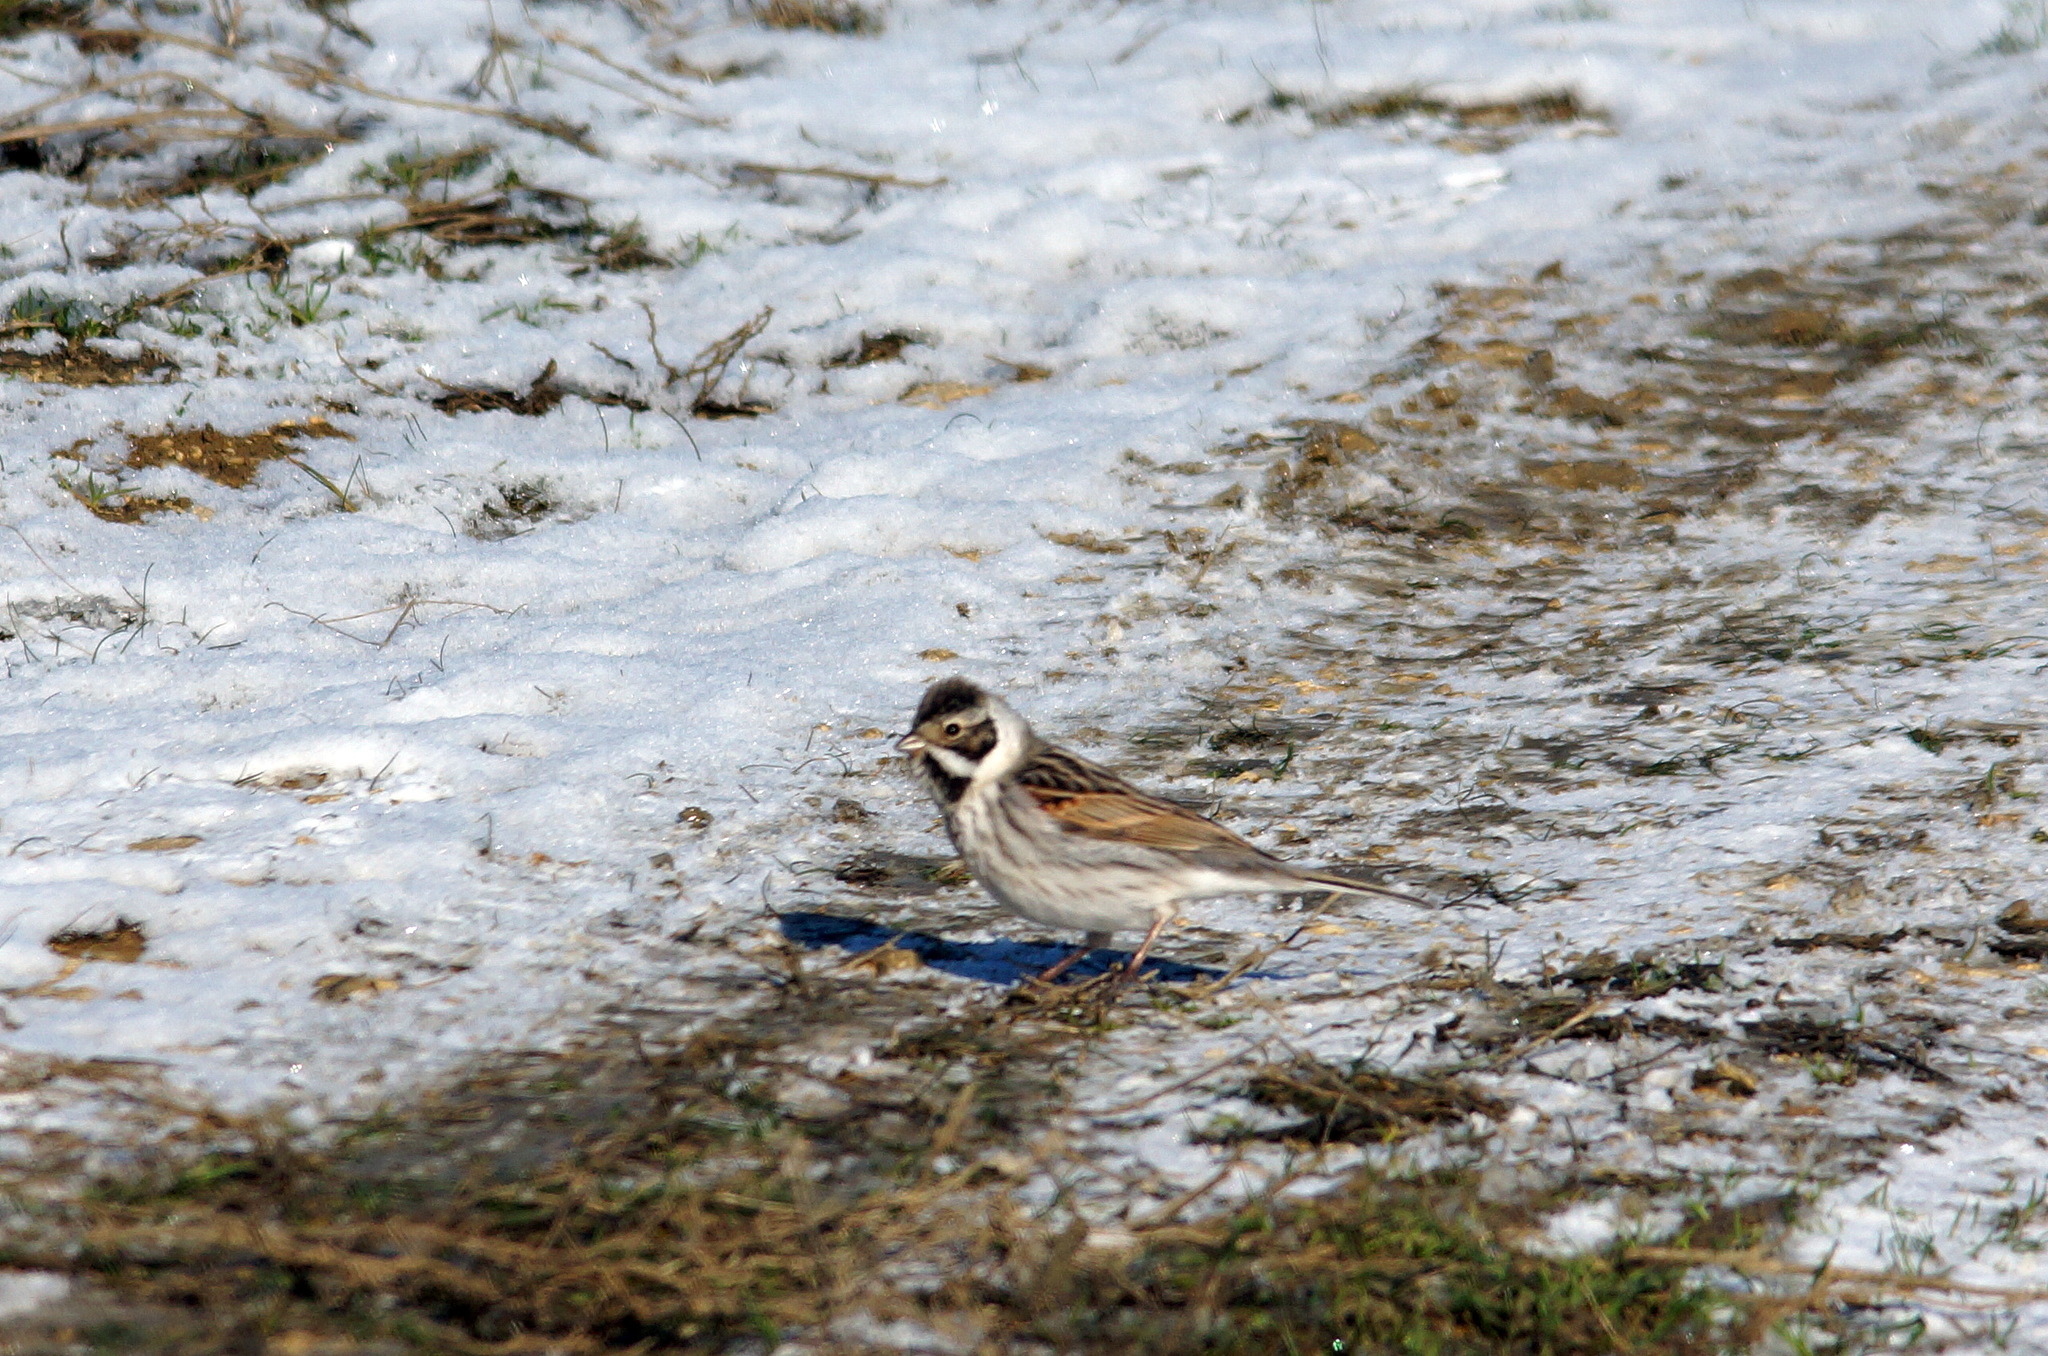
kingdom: Animalia
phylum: Chordata
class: Aves
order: Passeriformes
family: Emberizidae
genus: Emberiza
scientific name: Emberiza schoeniclus
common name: Reed bunting
